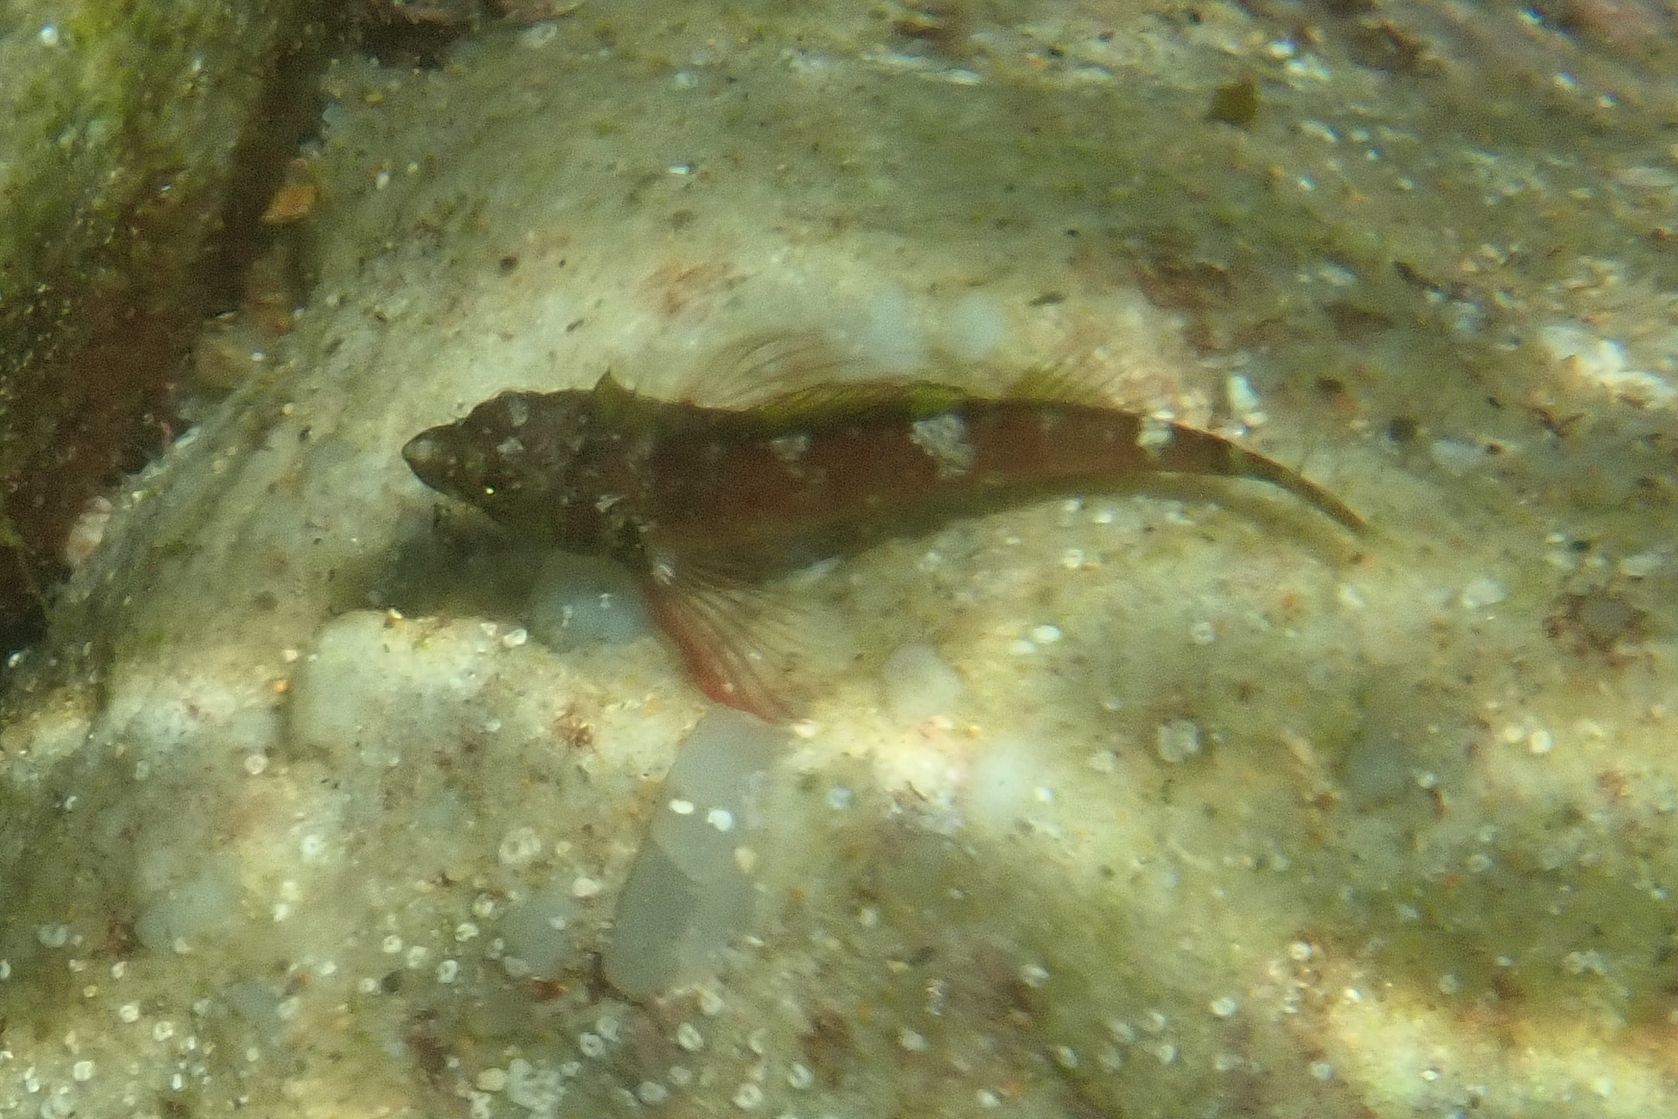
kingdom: Animalia
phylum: Chordata
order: Perciformes
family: Tripterygiidae
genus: Enneapterygius
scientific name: Enneapterygius atrogulare
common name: Blackthroat triplefin
